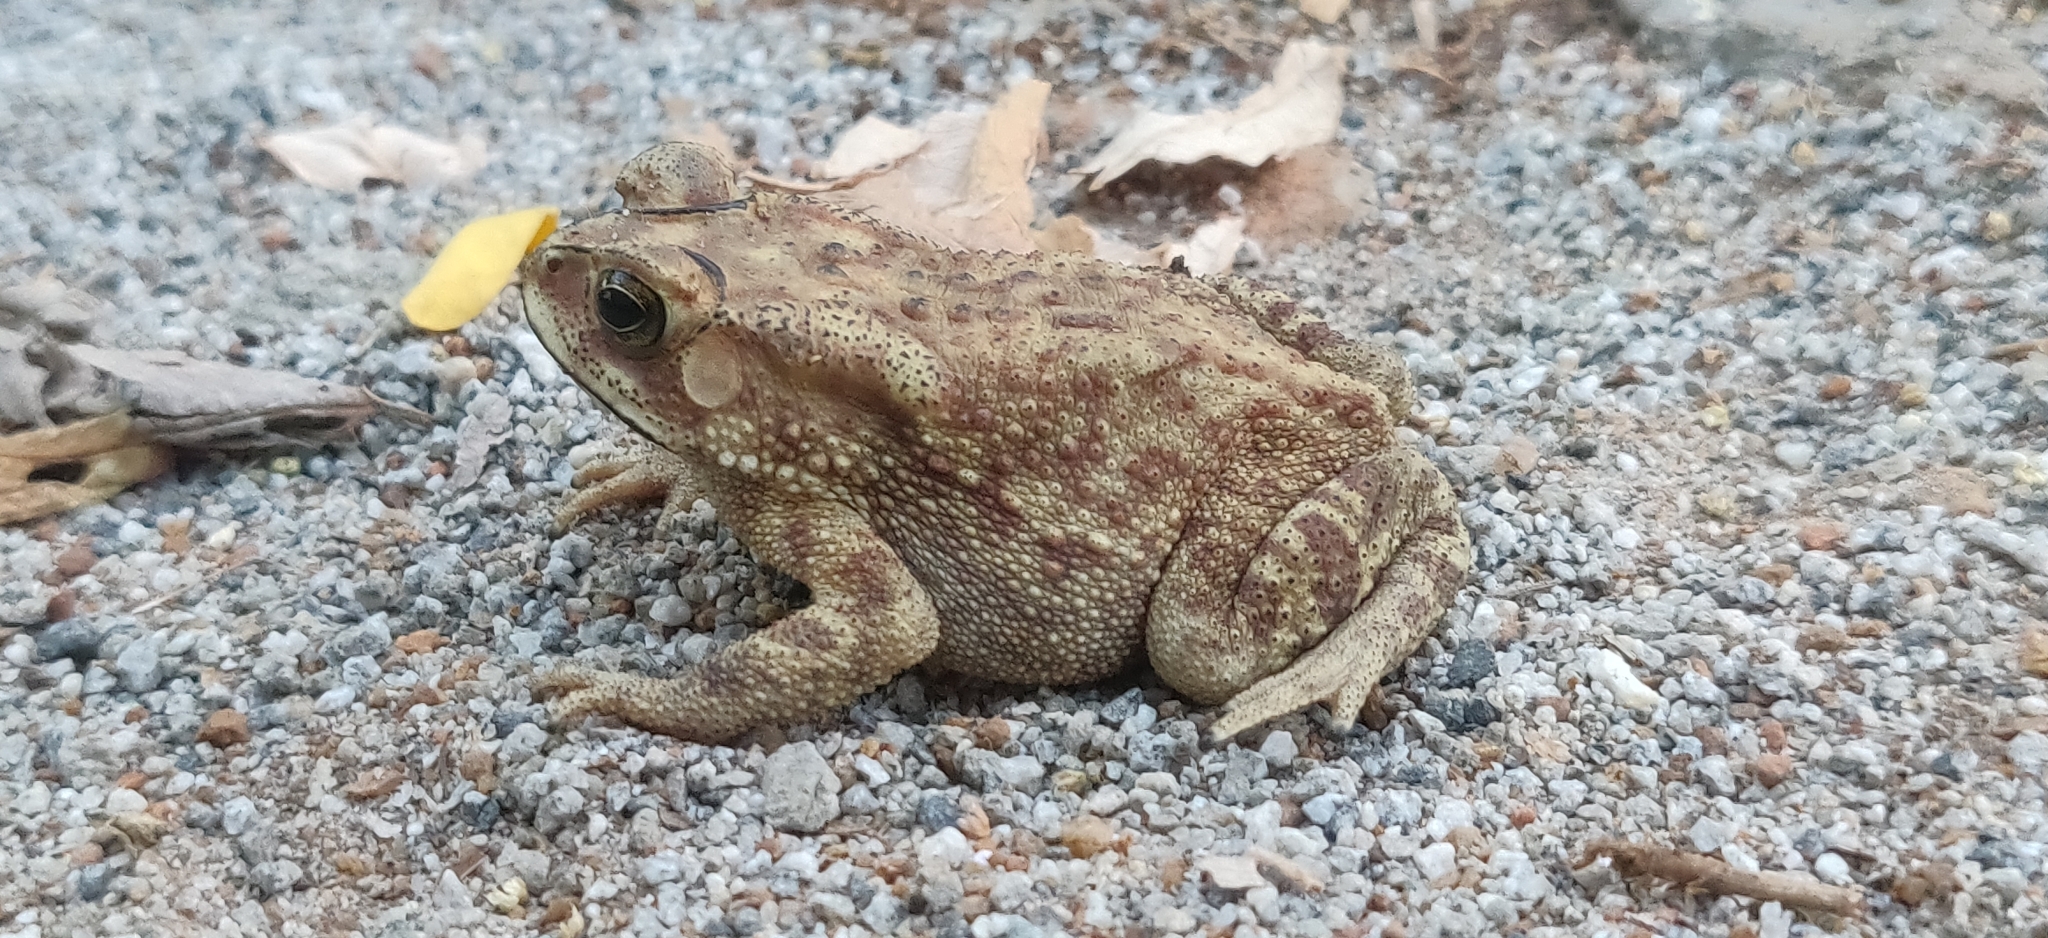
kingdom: Animalia
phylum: Chordata
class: Amphibia
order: Anura
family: Bufonidae
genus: Duttaphrynus
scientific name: Duttaphrynus melanostictus
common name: Common sunda toad
